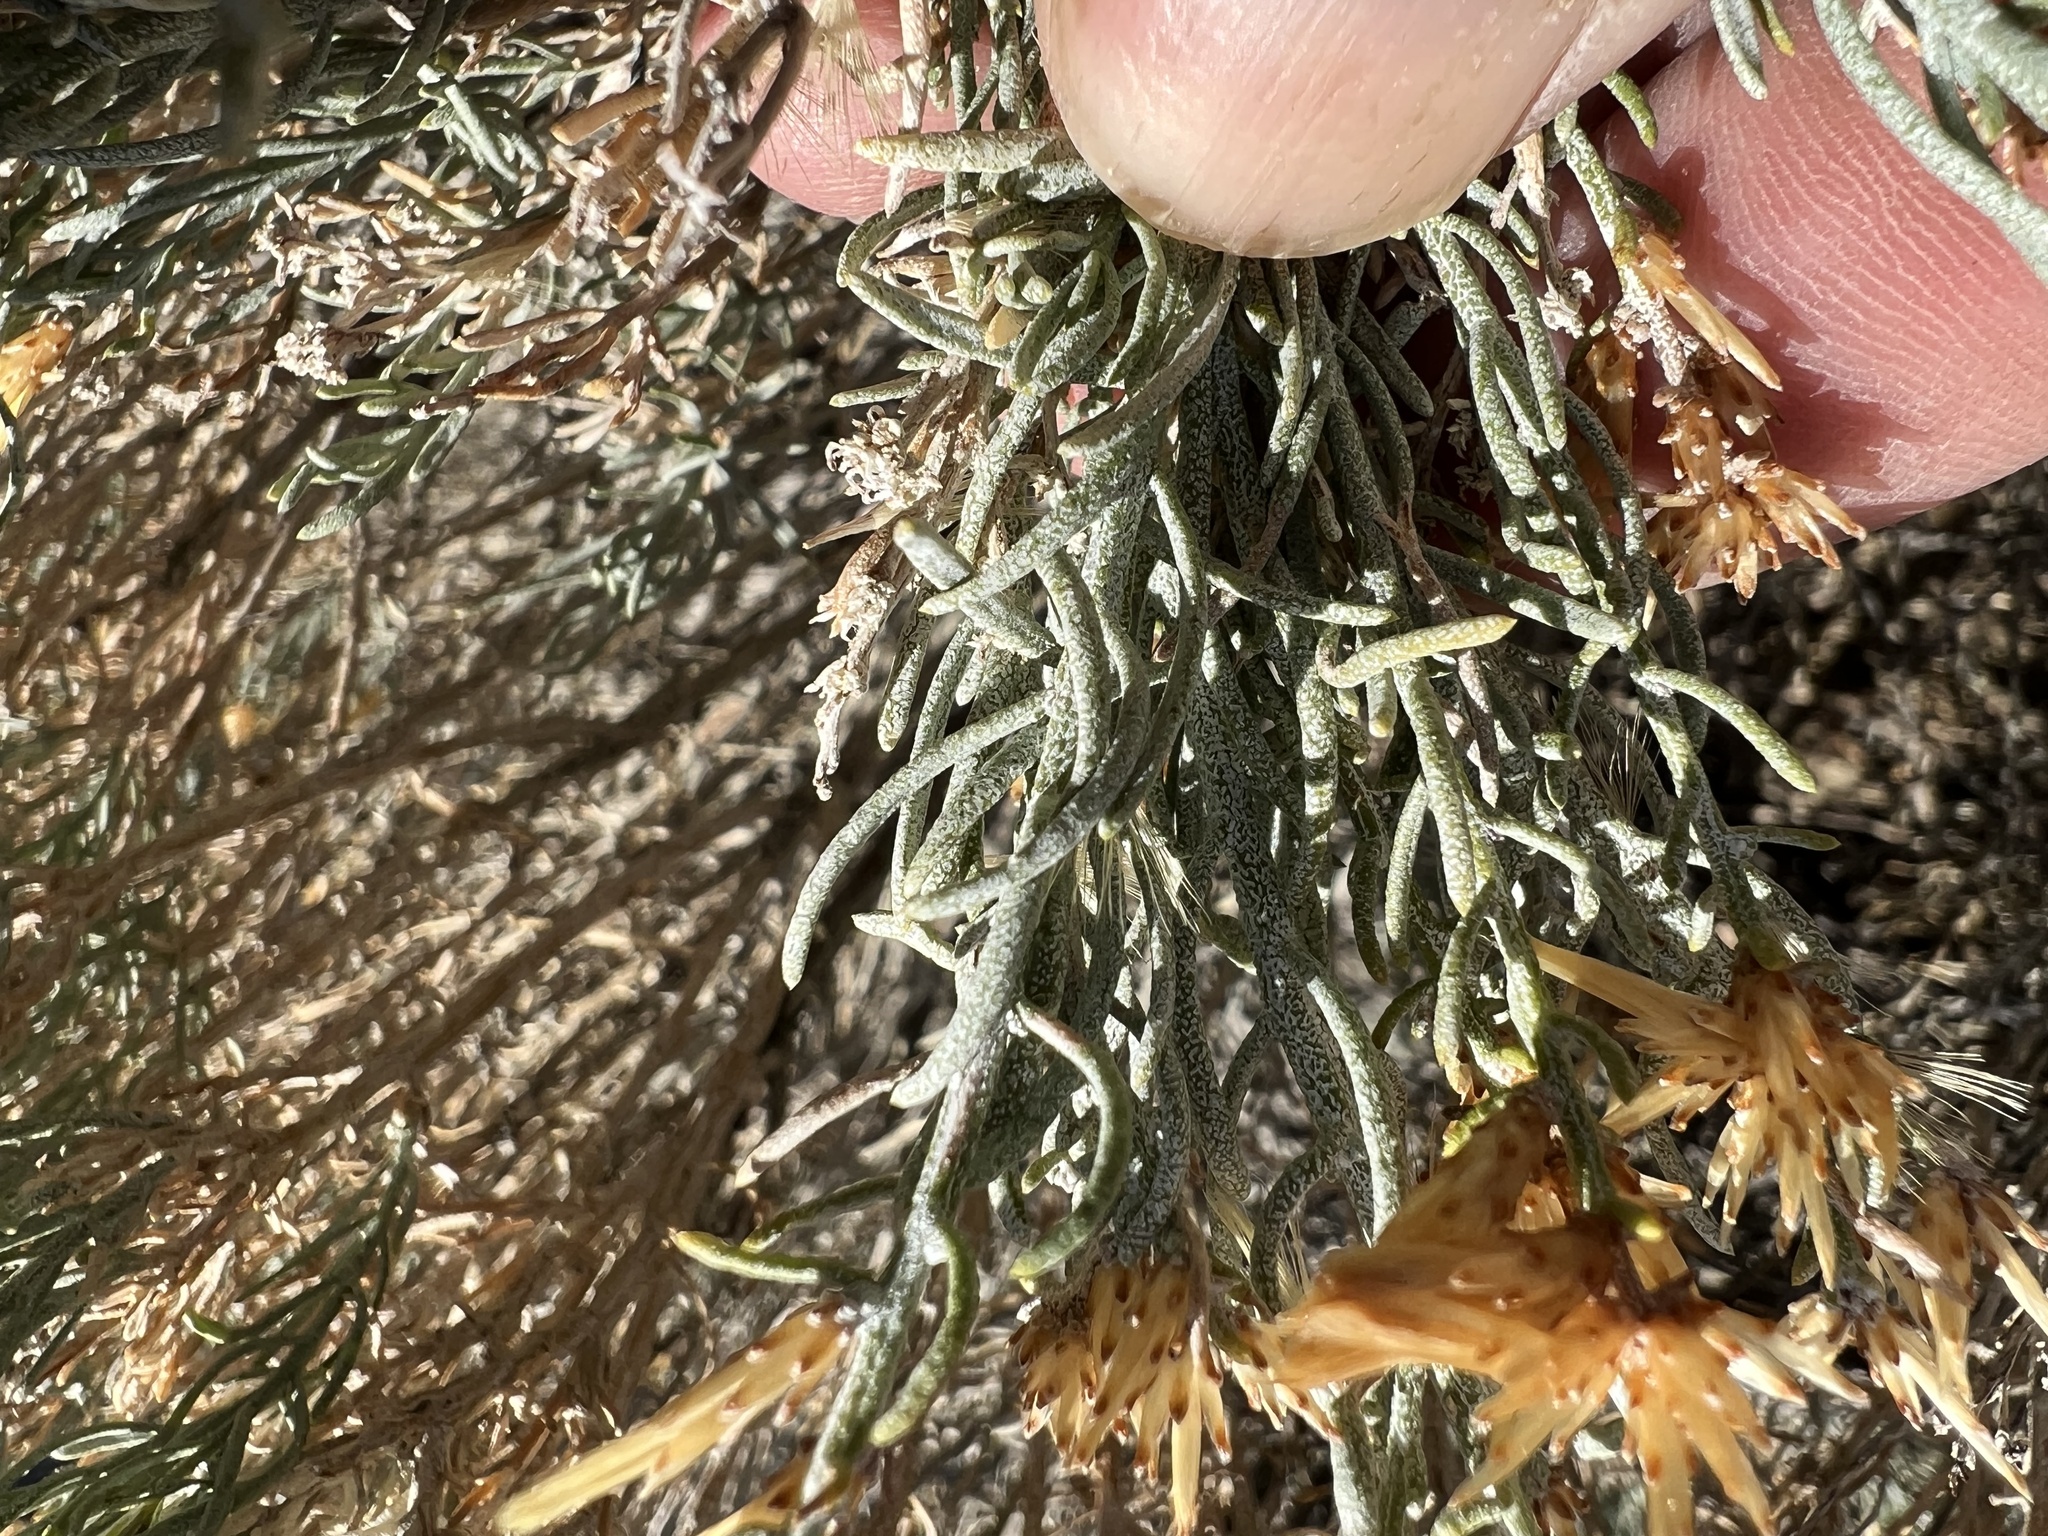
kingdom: Plantae
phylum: Tracheophyta
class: Magnoliopsida
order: Asterales
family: Asteraceae
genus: Ericameria
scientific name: Ericameria teretifolia
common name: Round-leaf rabbitbrush
